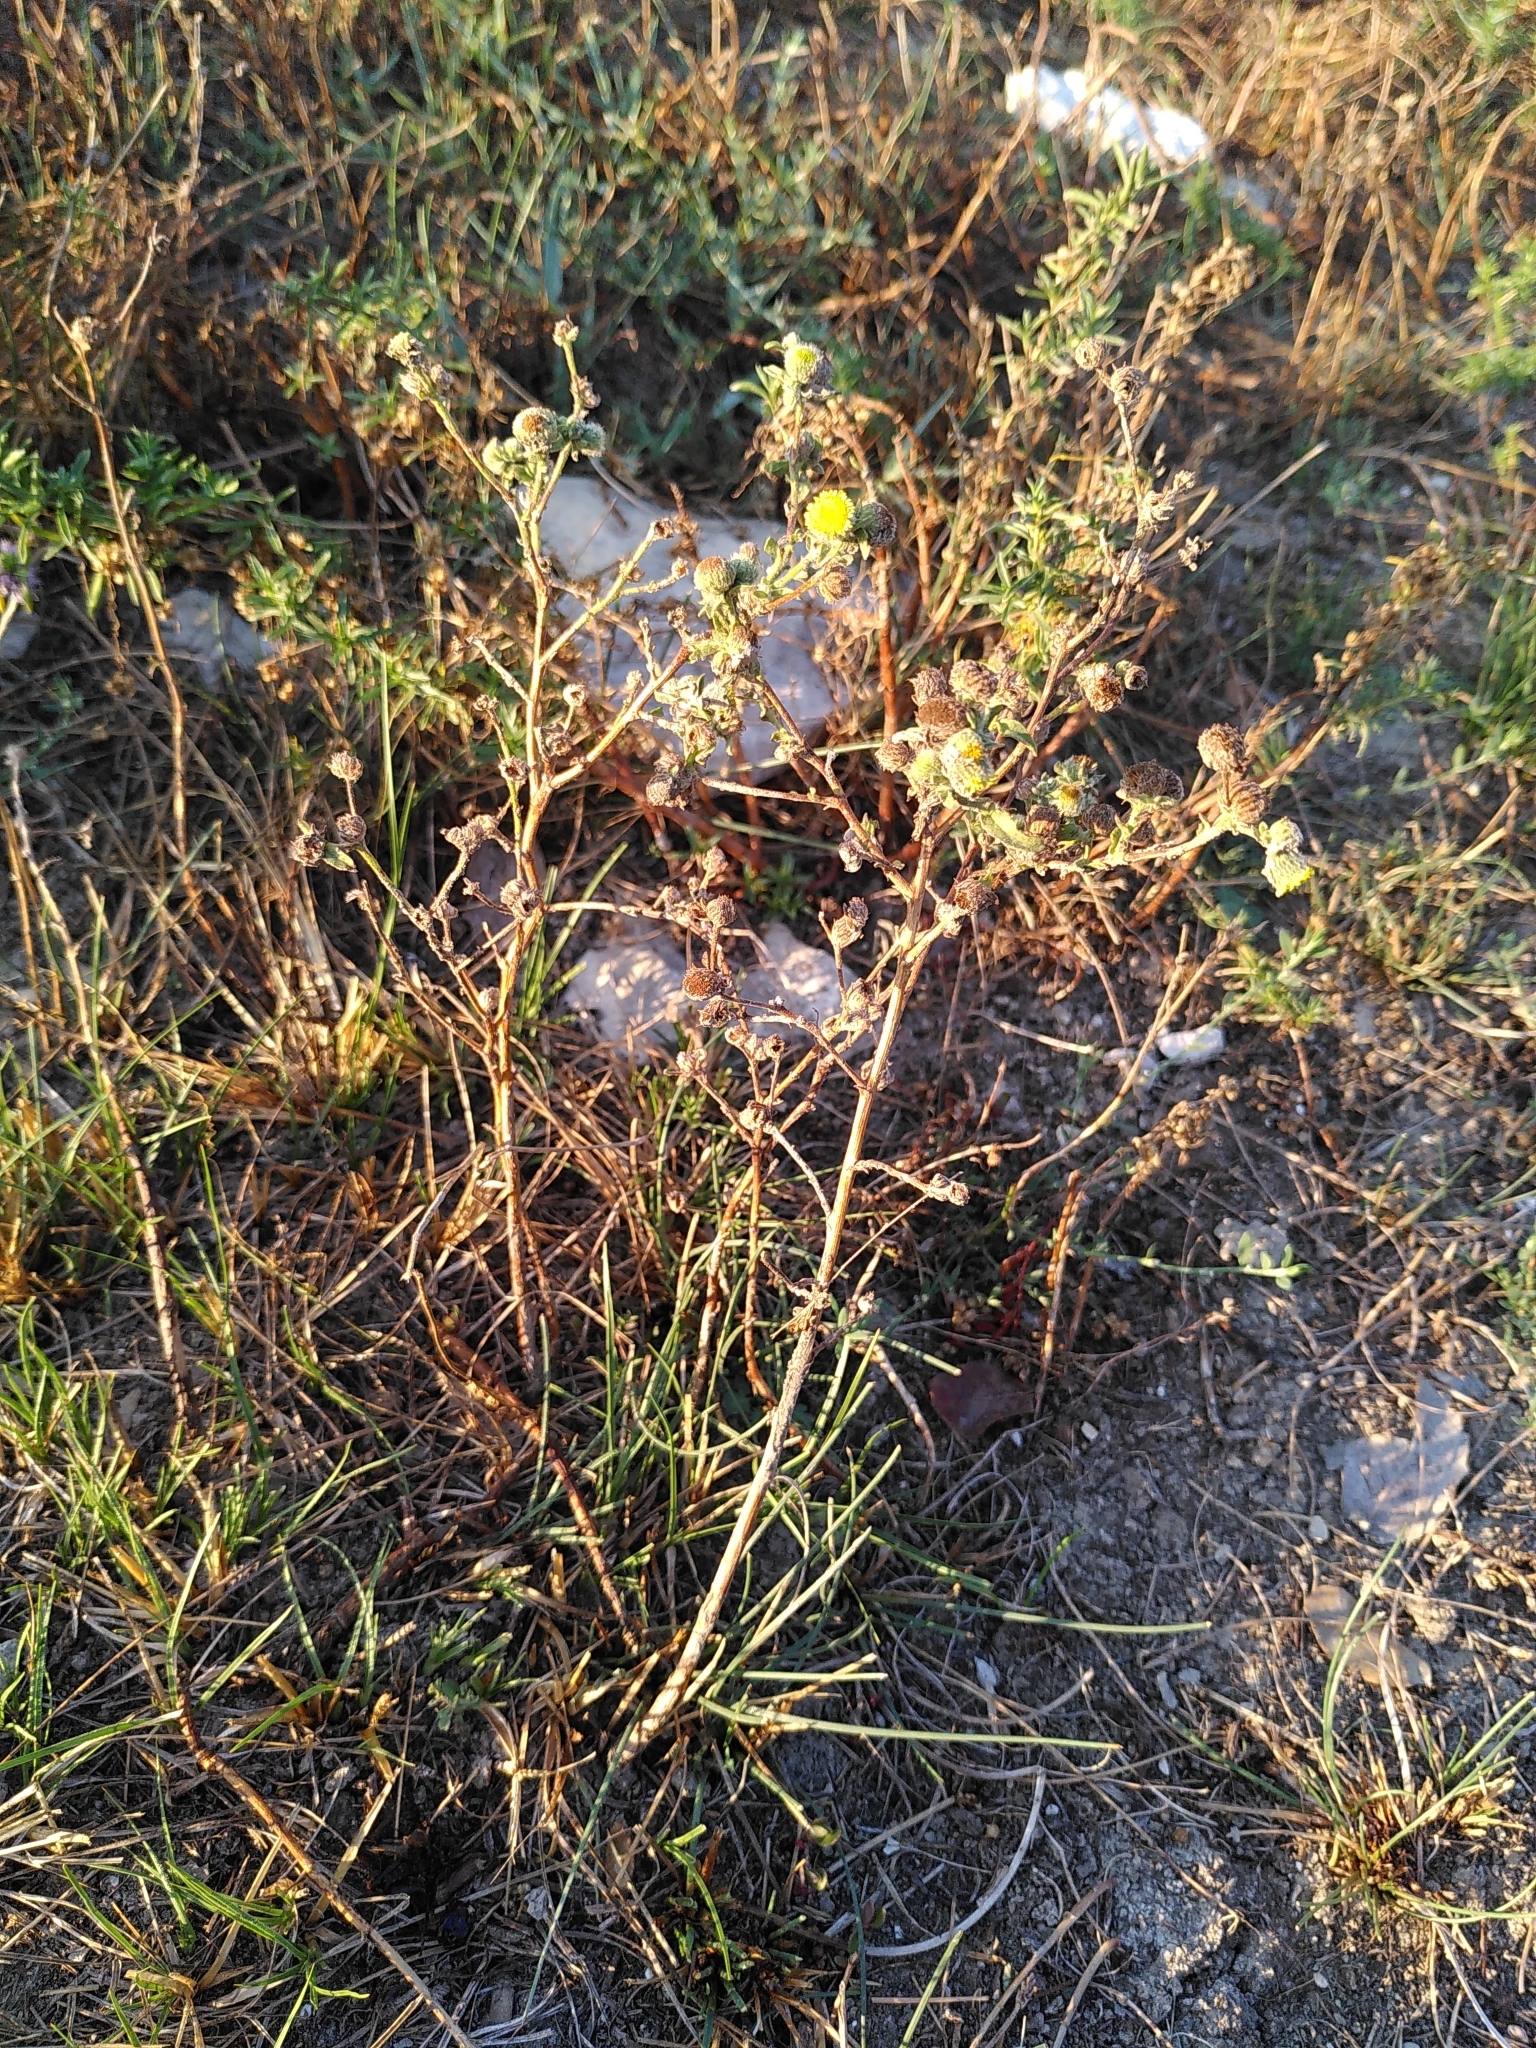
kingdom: Plantae
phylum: Tracheophyta
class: Magnoliopsida
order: Asterales
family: Asteraceae
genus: Pulicaria
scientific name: Pulicaria vulgaris
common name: Small fleabane
